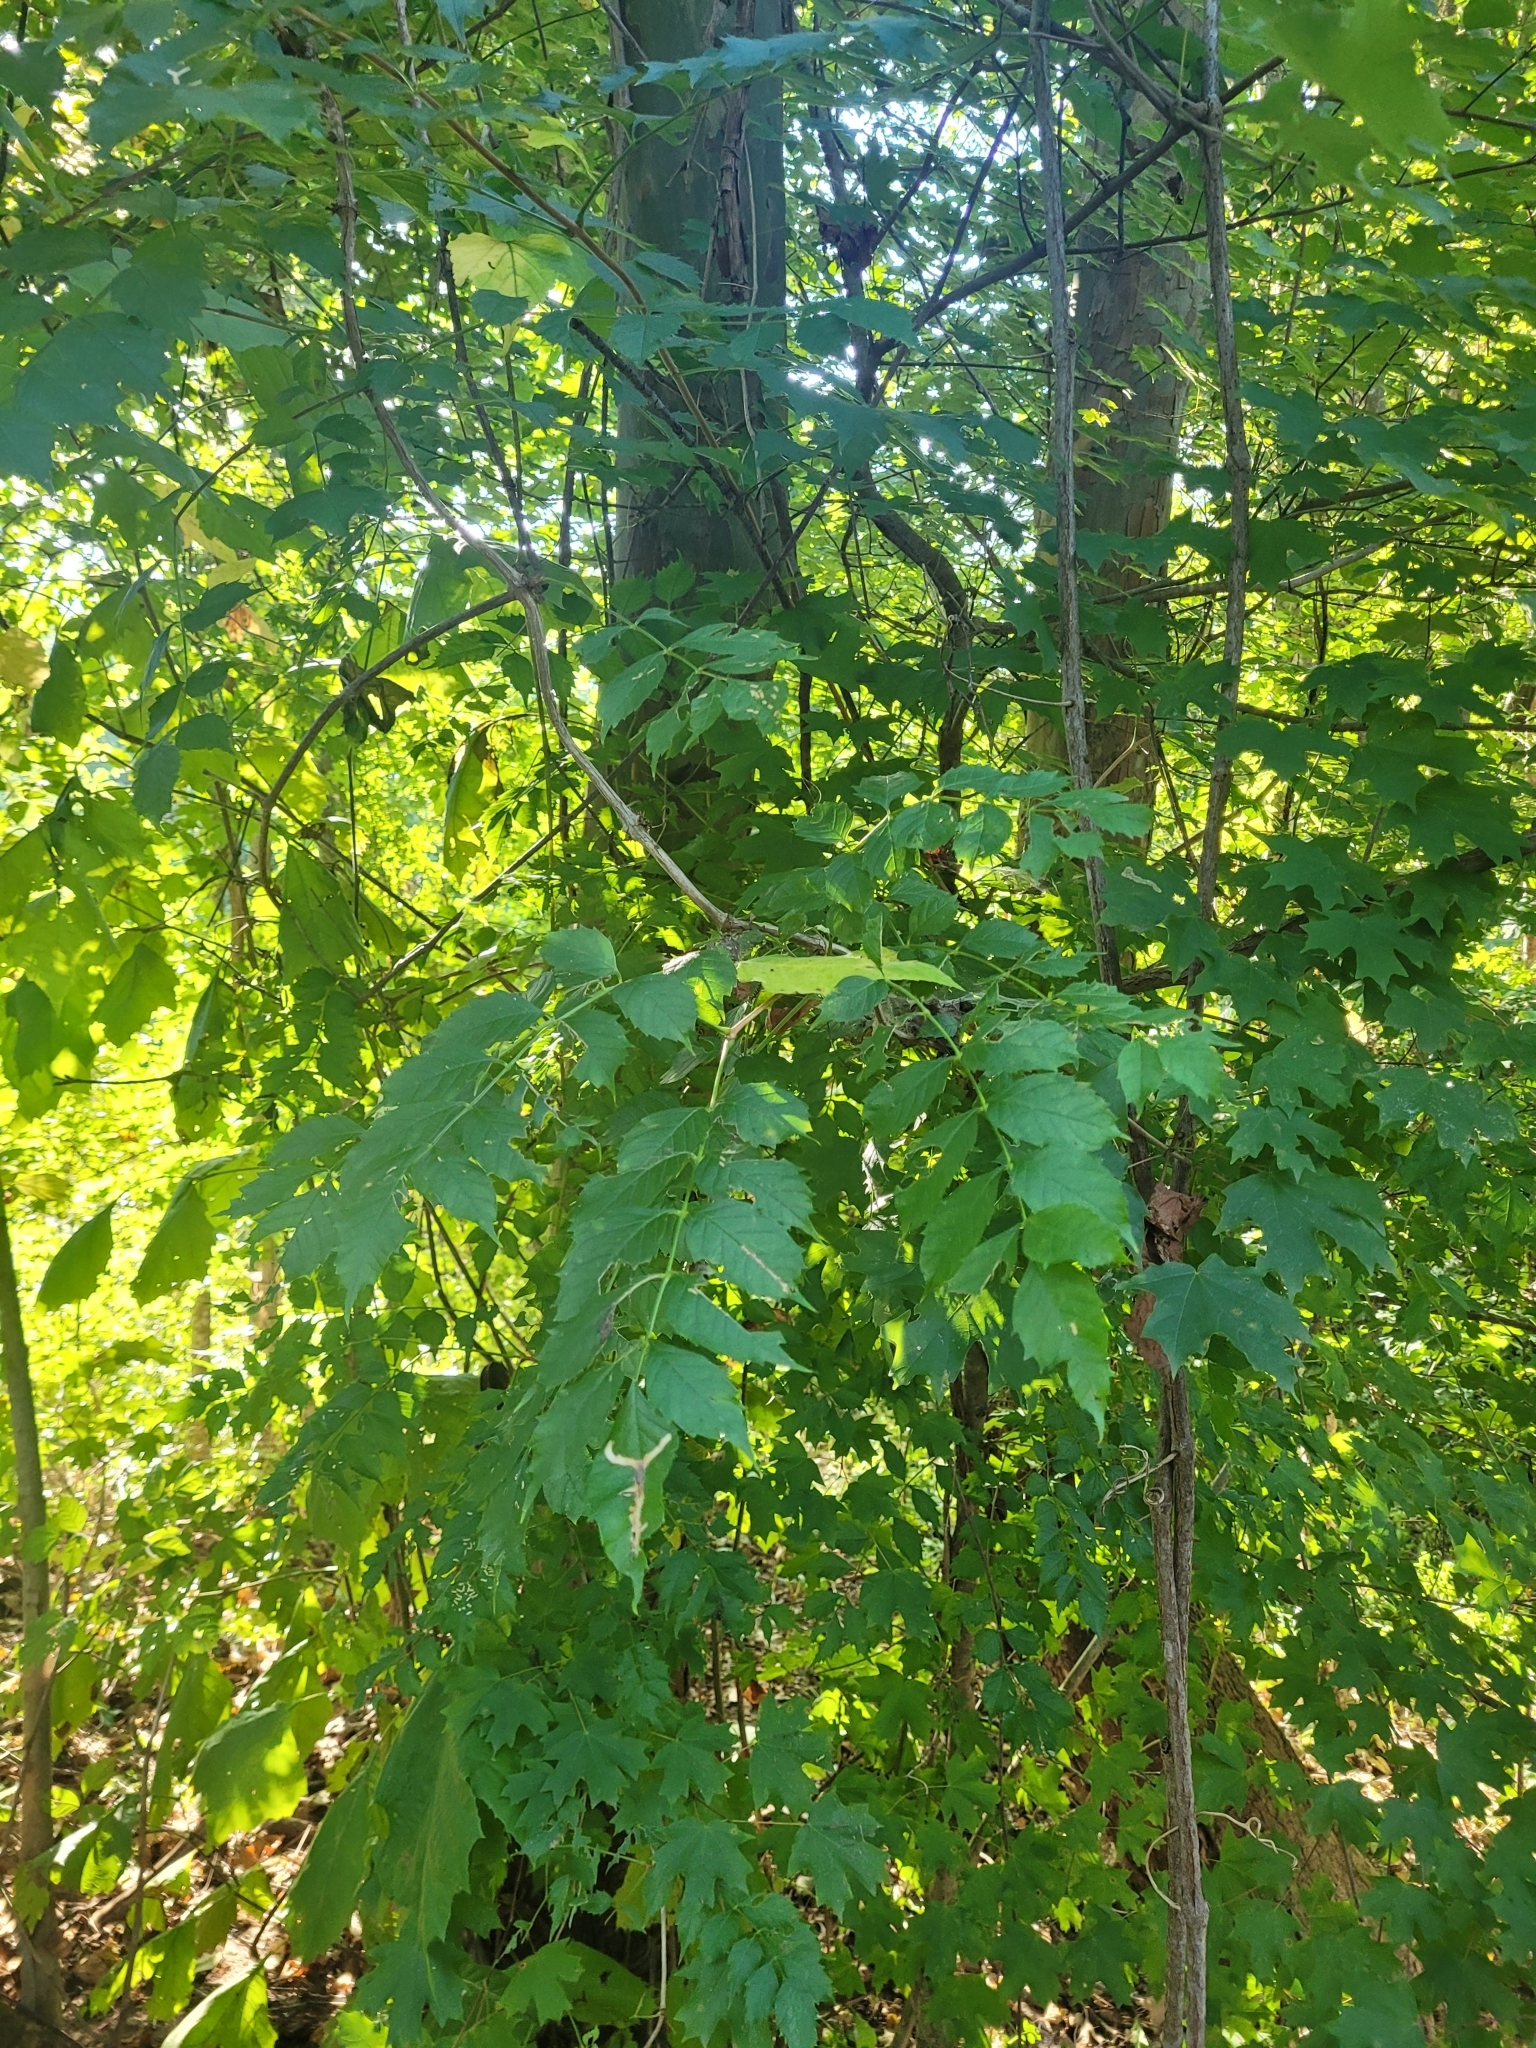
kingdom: Plantae
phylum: Tracheophyta
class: Magnoliopsida
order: Lamiales
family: Bignoniaceae
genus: Campsis
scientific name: Campsis radicans
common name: Trumpet-creeper
